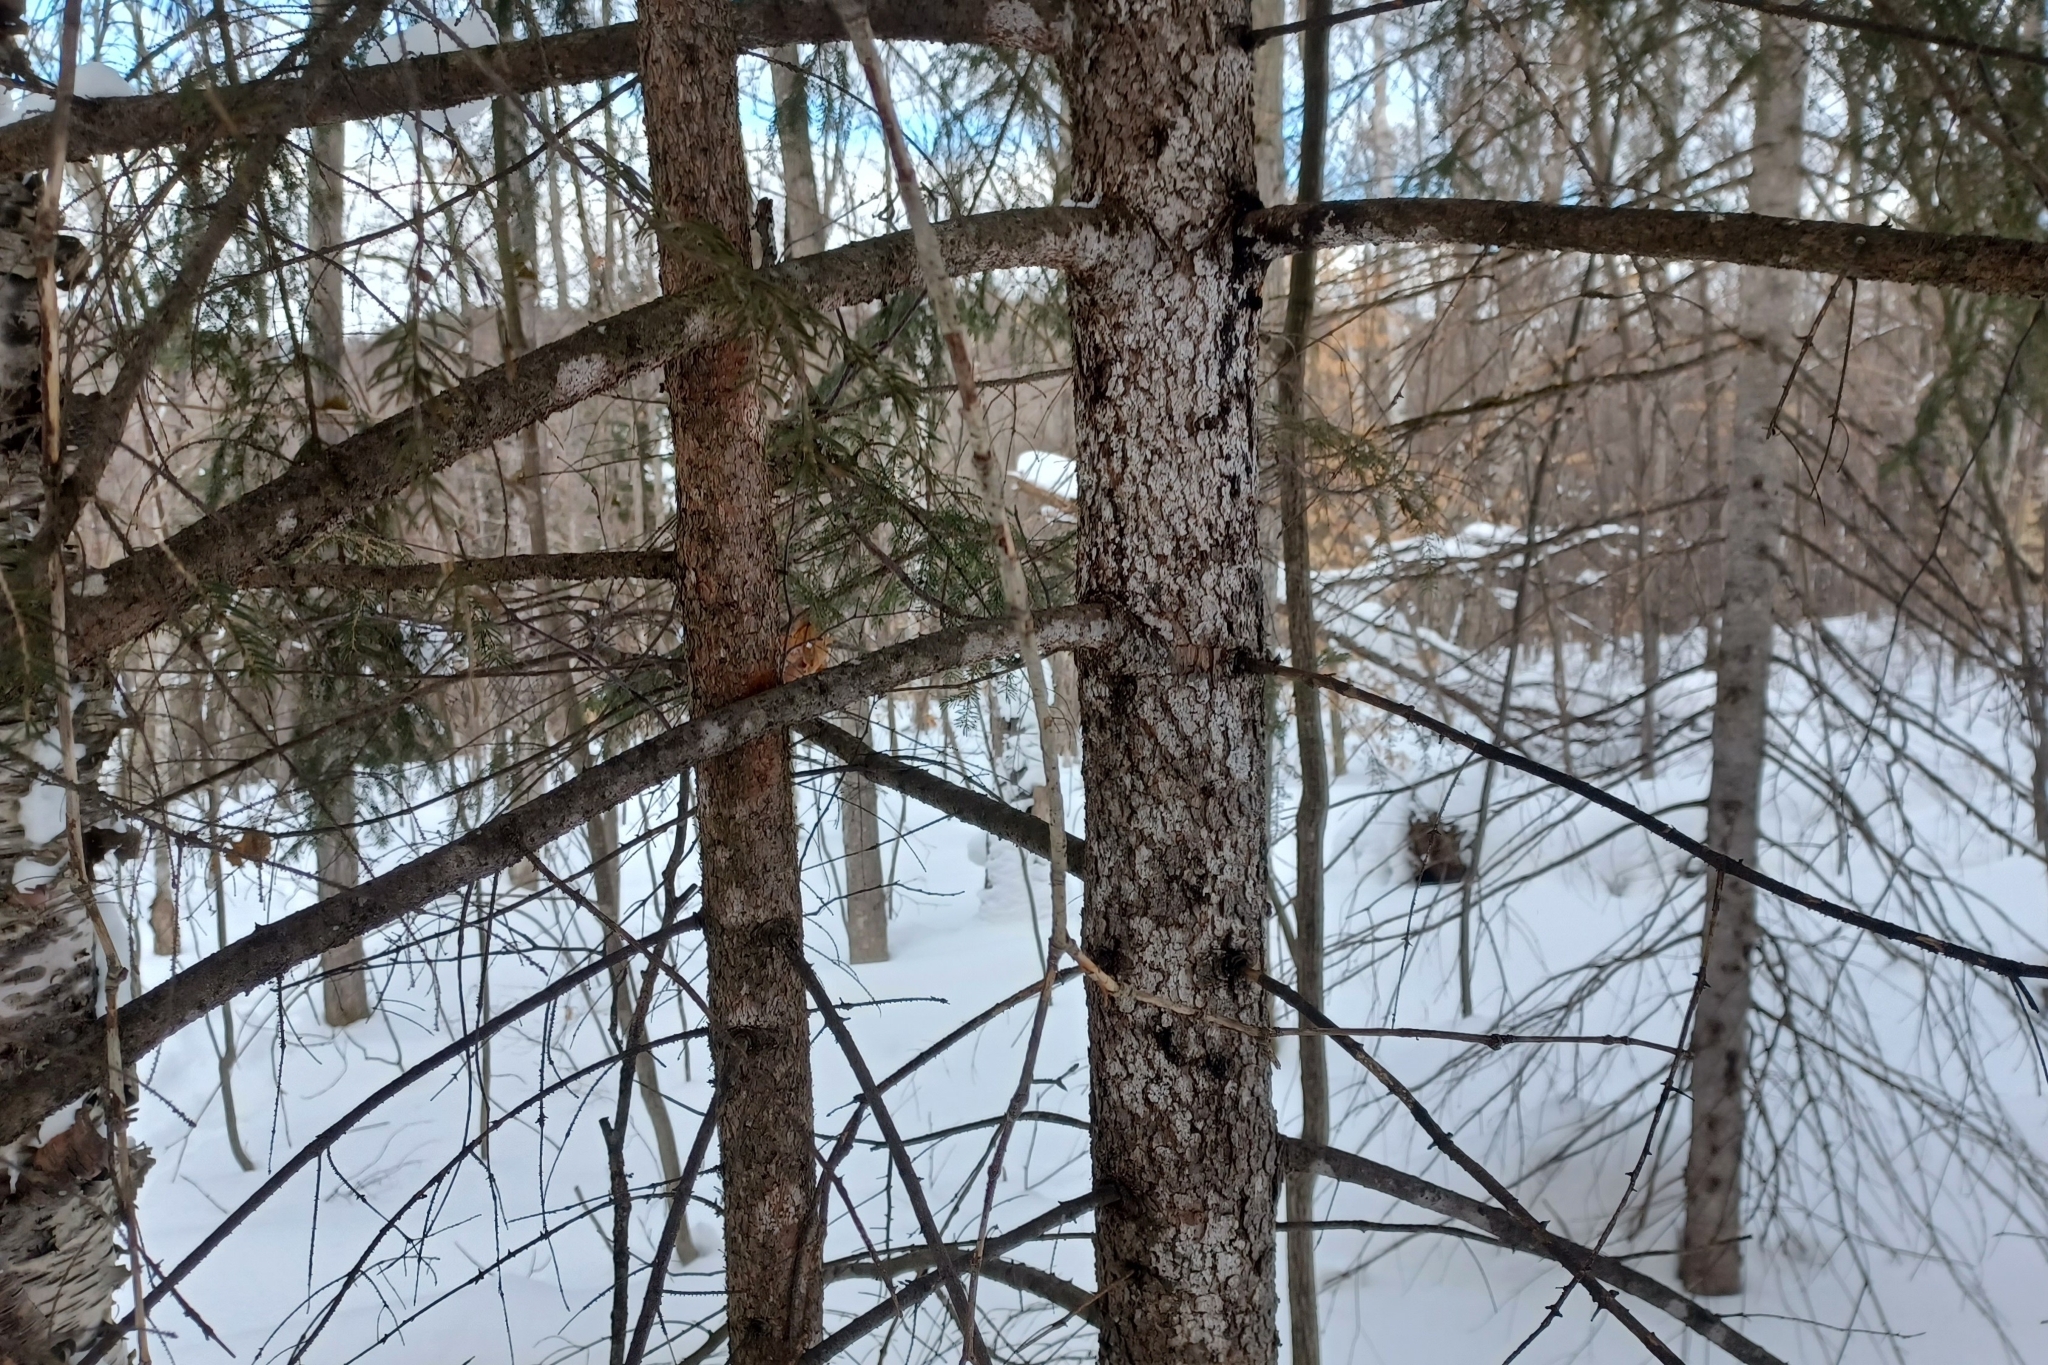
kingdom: Plantae
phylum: Tracheophyta
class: Pinopsida
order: Pinales
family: Pinaceae
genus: Picea
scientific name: Picea rubens
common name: Red spruce
